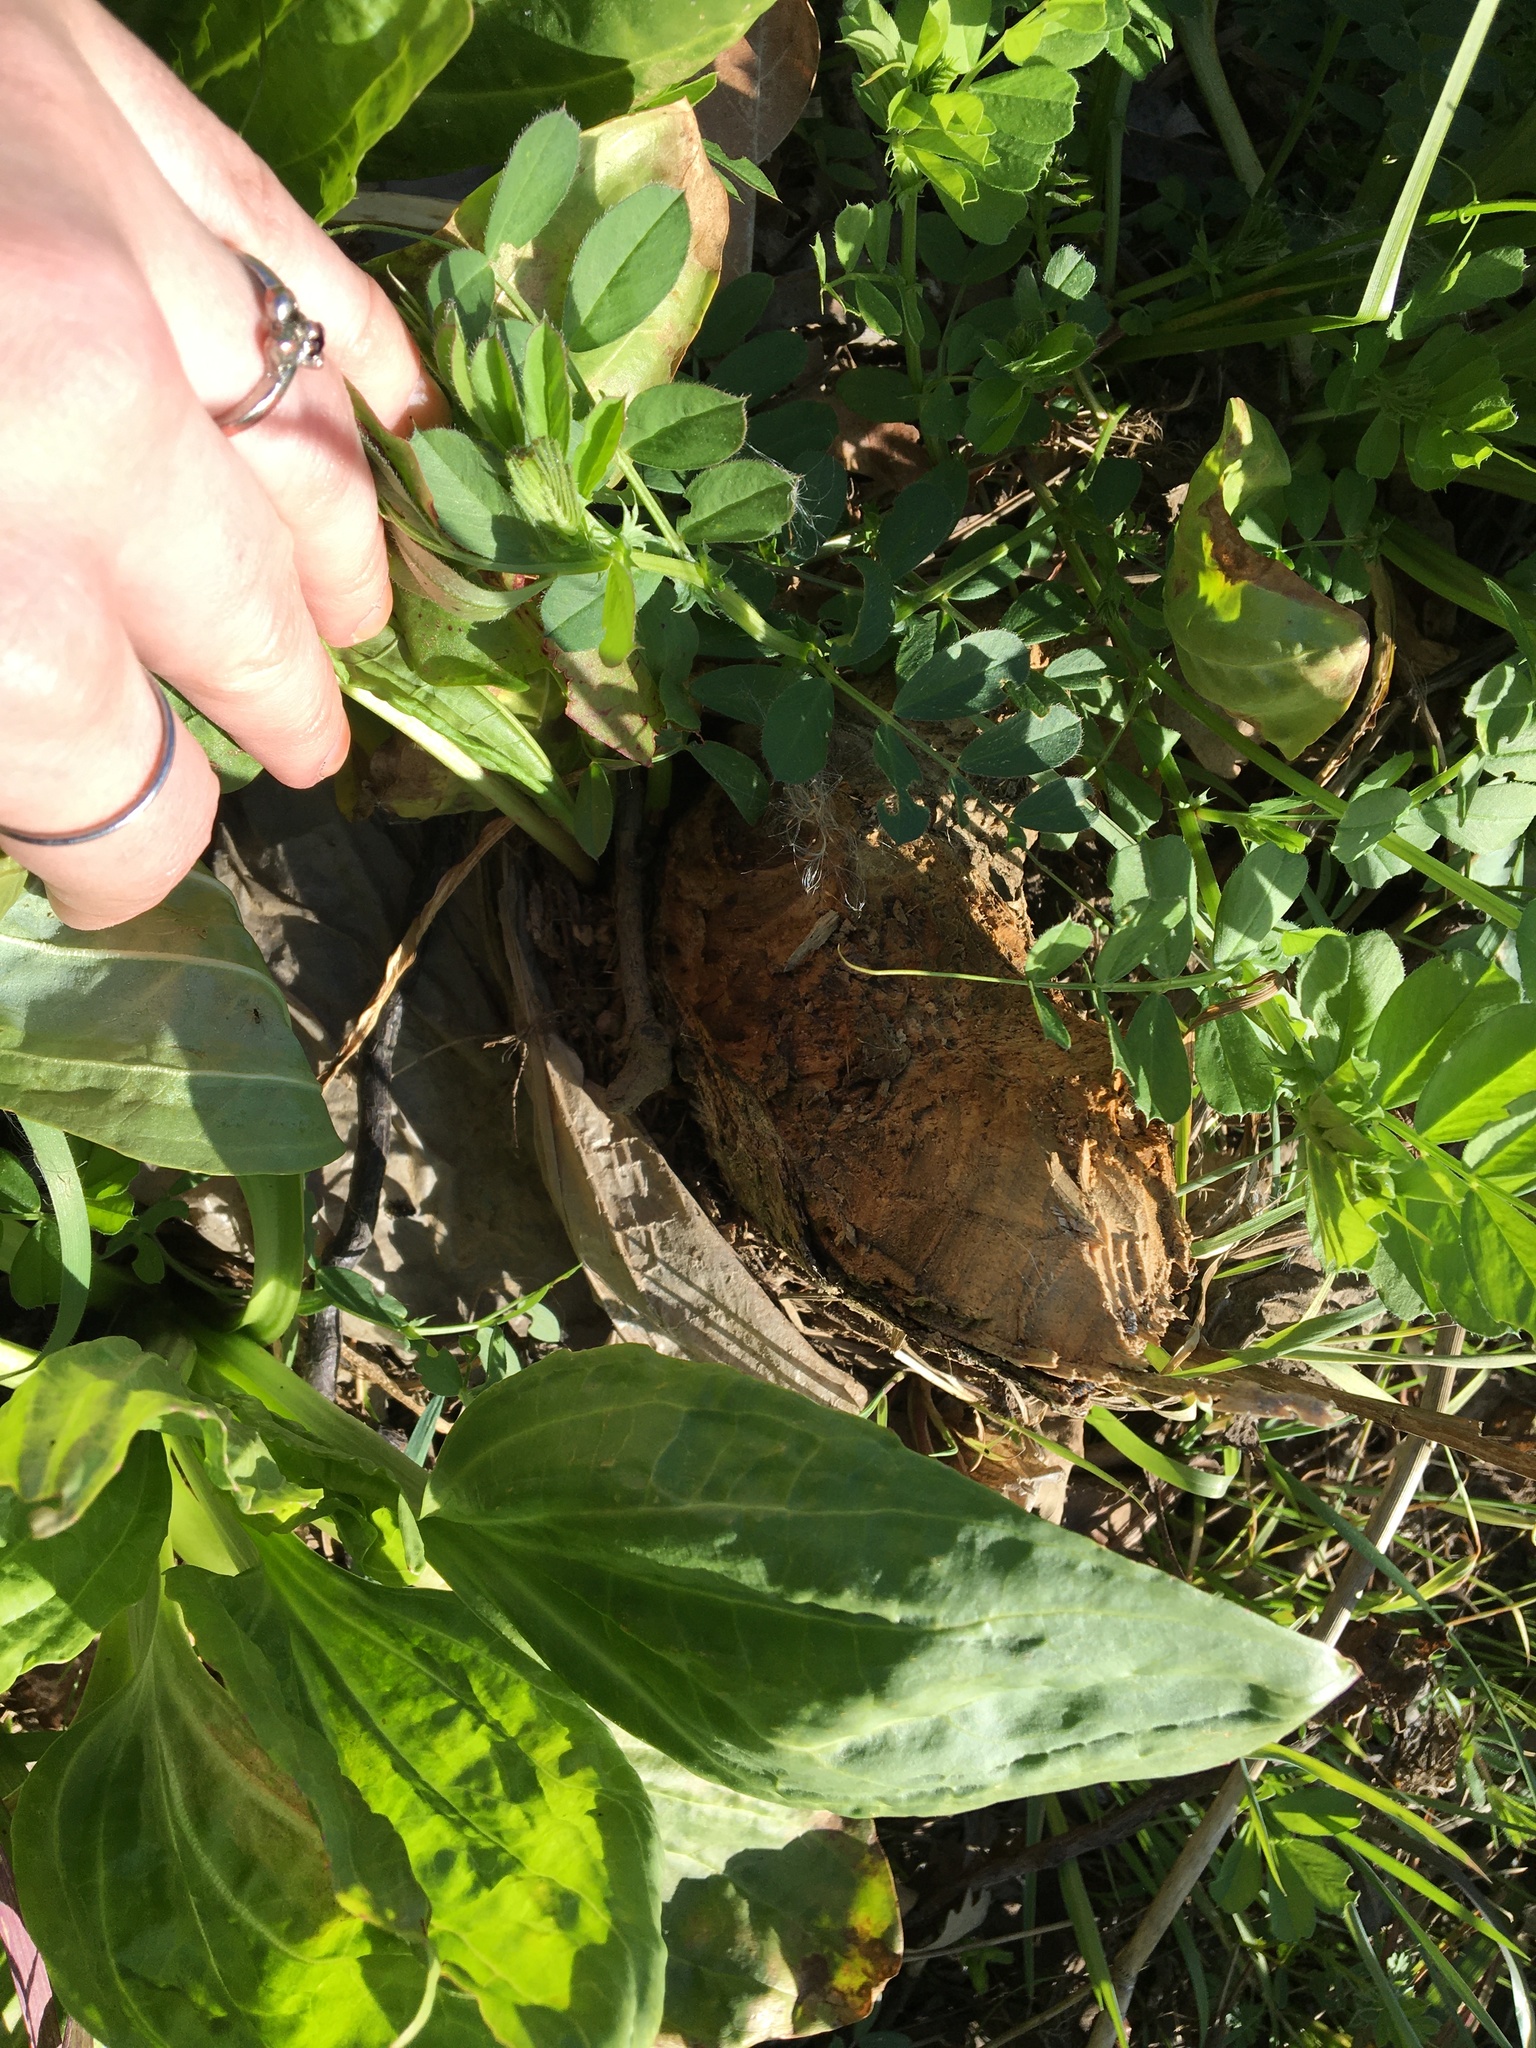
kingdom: Animalia
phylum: Chordata
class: Mammalia
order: Rodentia
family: Castoridae
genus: Castor
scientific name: Castor canadensis
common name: American beaver
